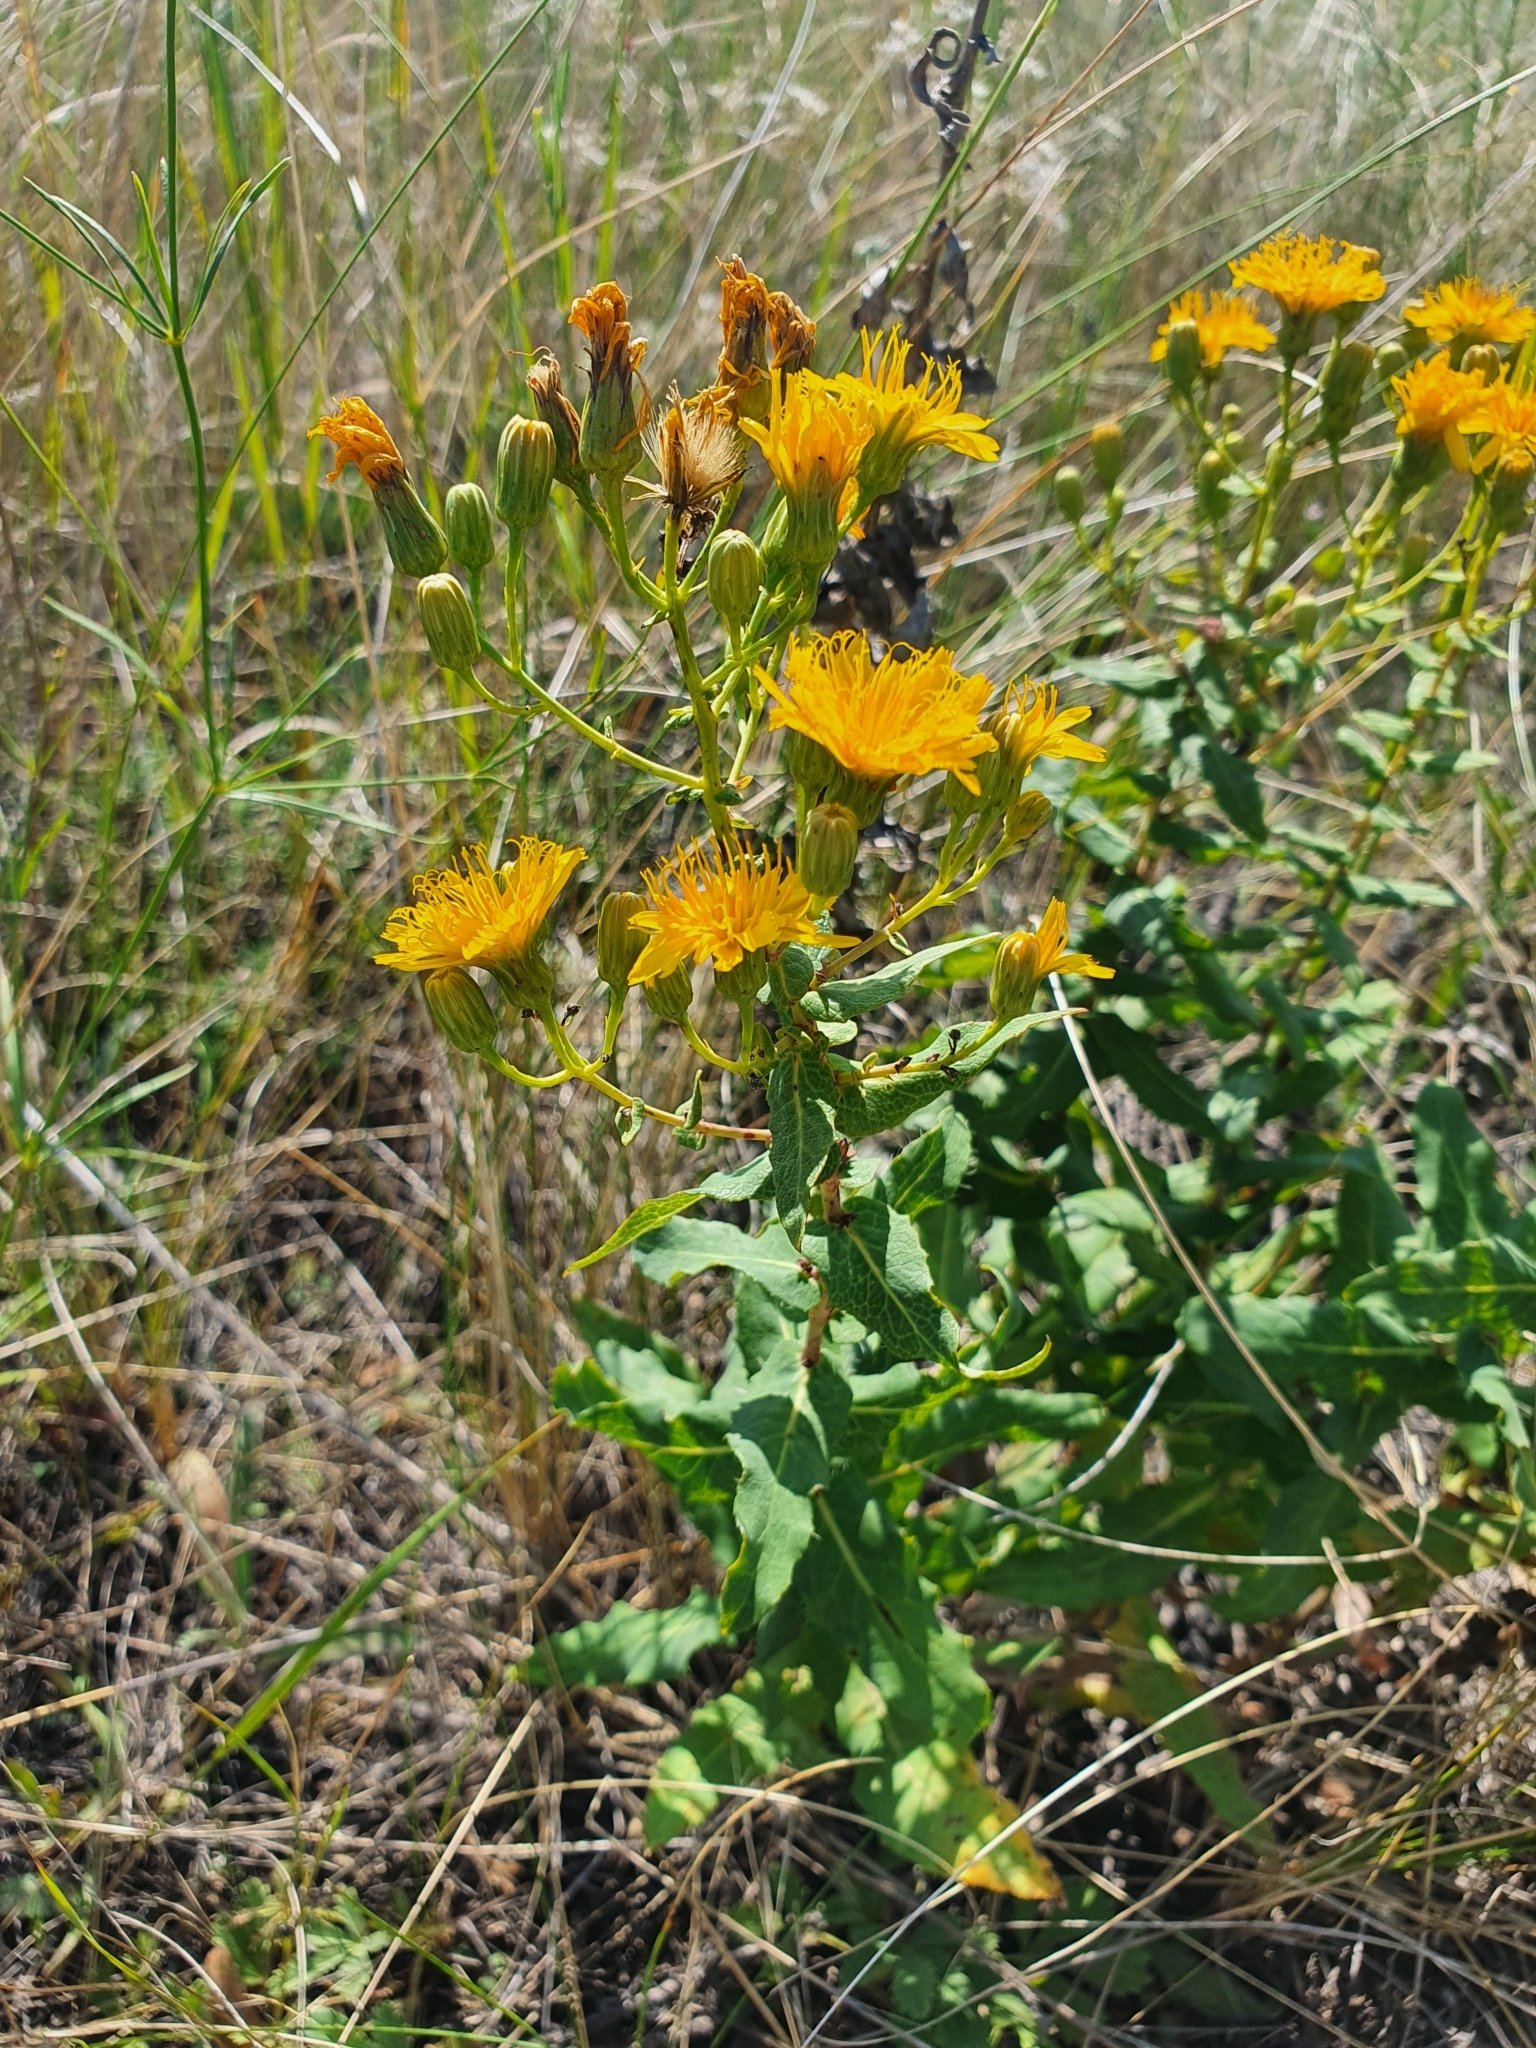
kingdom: Plantae
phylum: Tracheophyta
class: Magnoliopsida
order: Asterales
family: Asteraceae
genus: Hieracium
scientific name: Hieracium virosum
